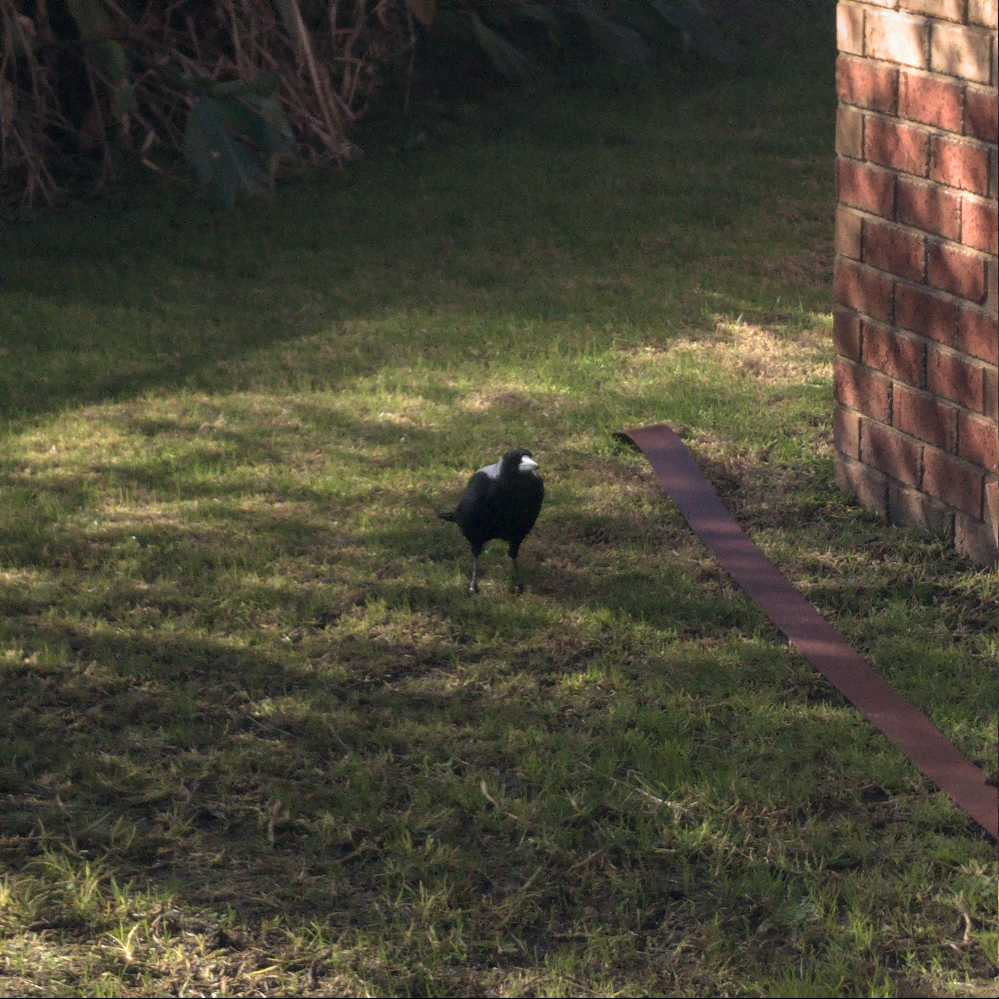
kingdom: Animalia
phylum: Chordata
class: Aves
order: Passeriformes
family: Cracticidae
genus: Gymnorhina
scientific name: Gymnorhina tibicen
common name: Australian magpie
